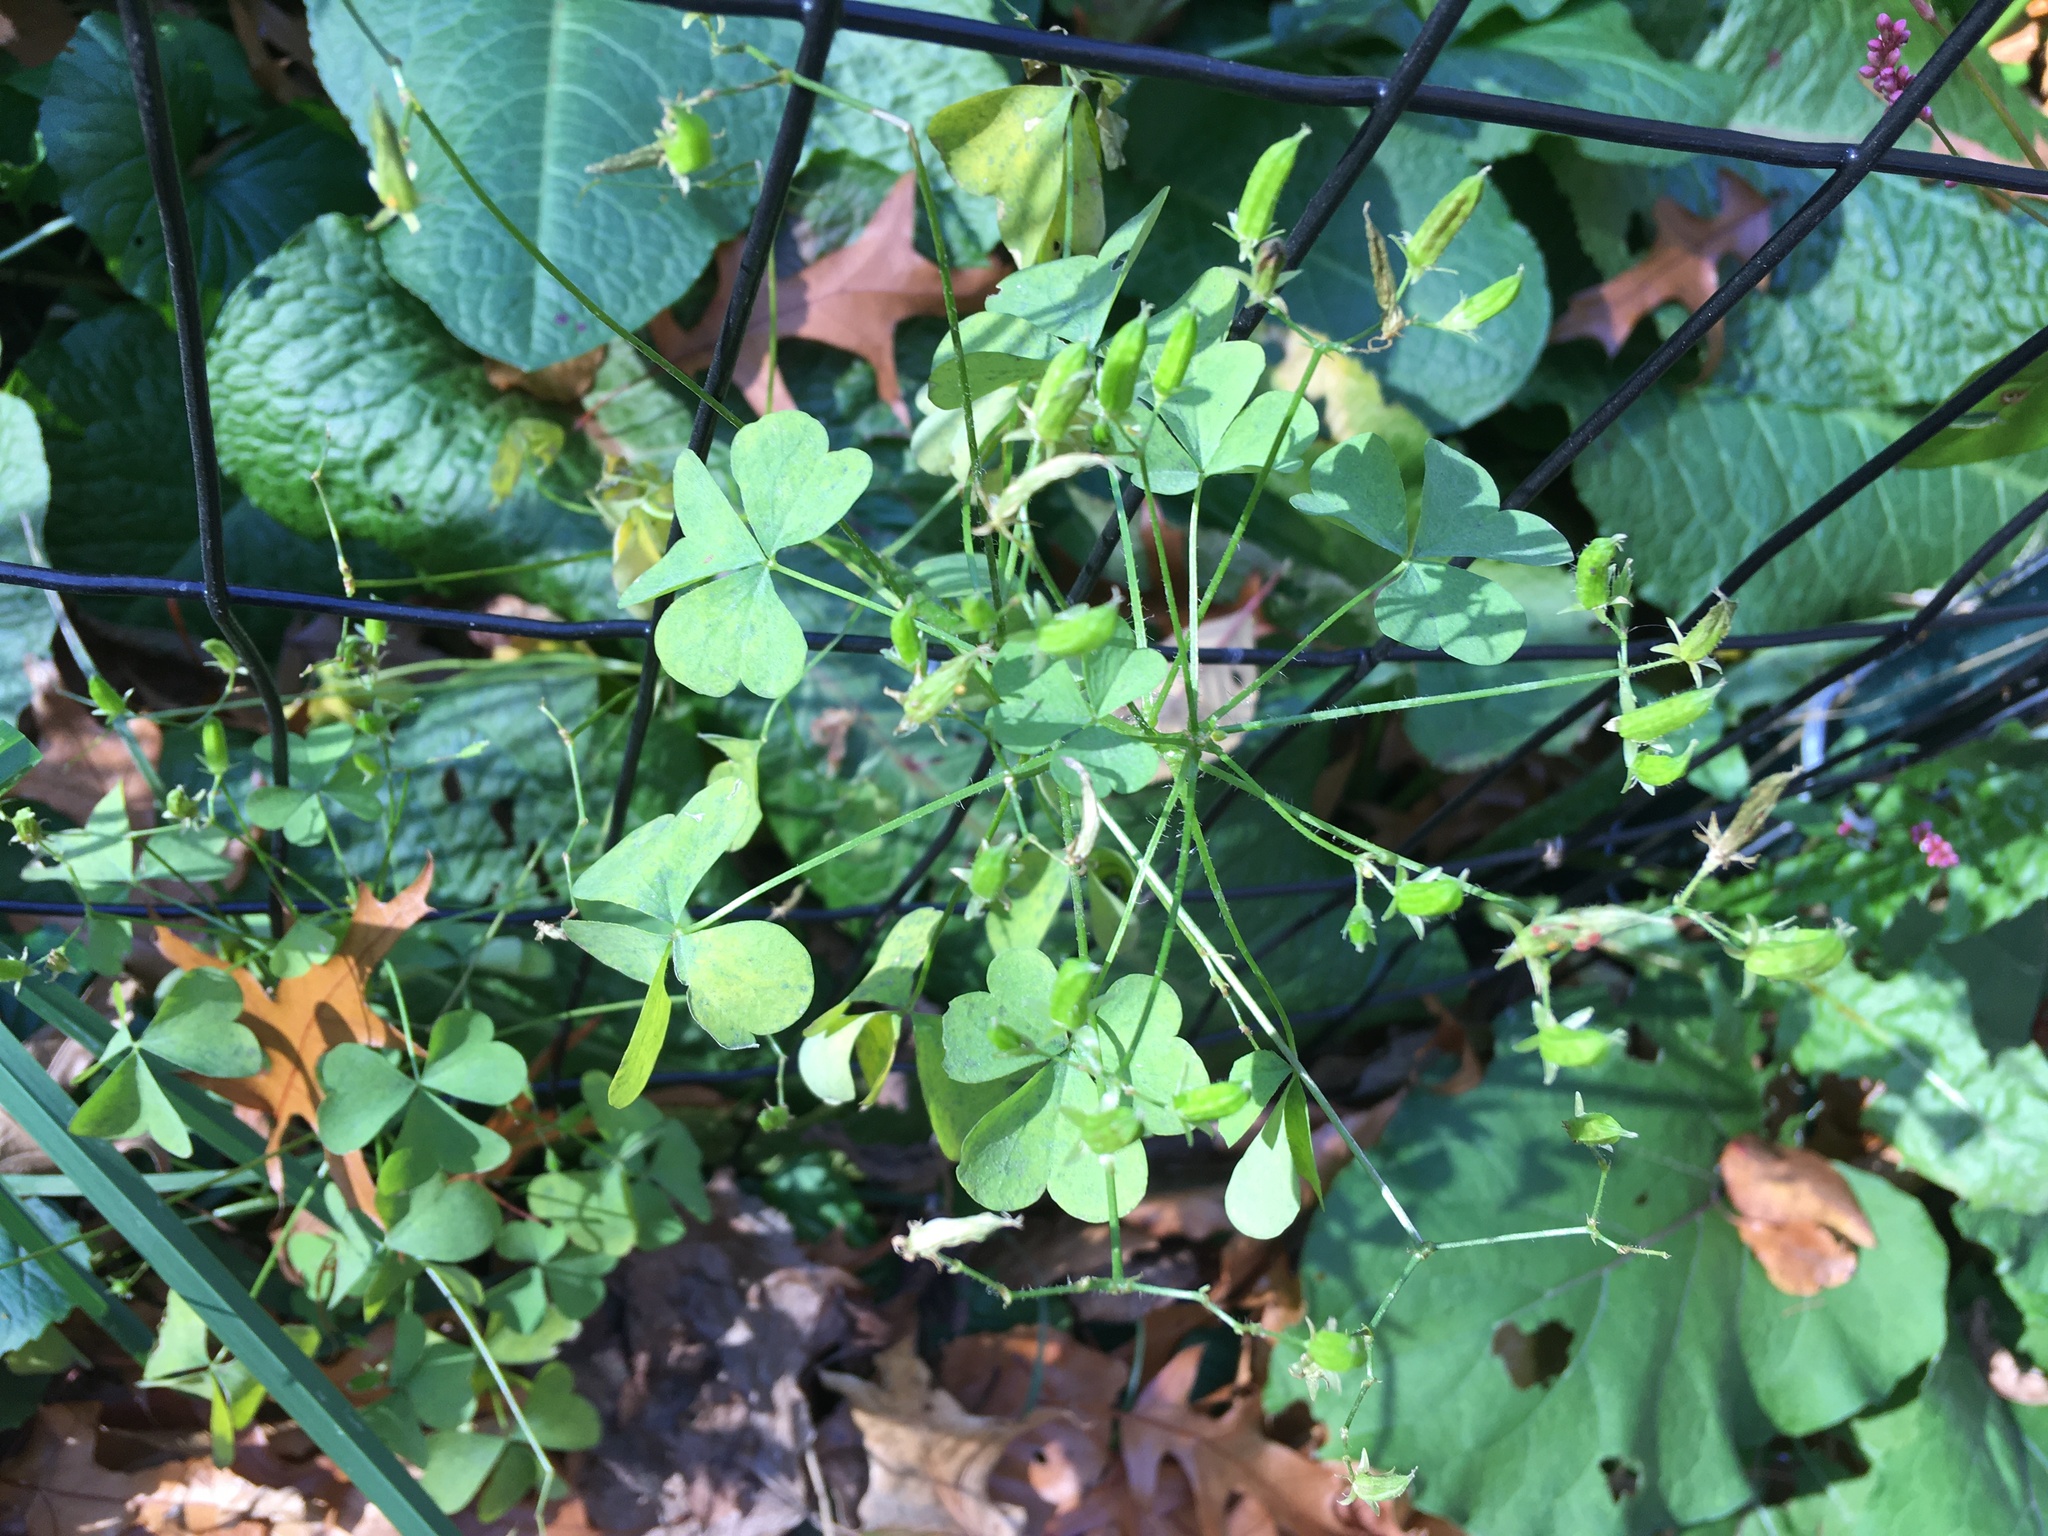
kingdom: Plantae
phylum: Tracheophyta
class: Magnoliopsida
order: Oxalidales
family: Oxalidaceae
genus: Oxalis
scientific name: Oxalis stricta
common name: Upright yellow-sorrel
